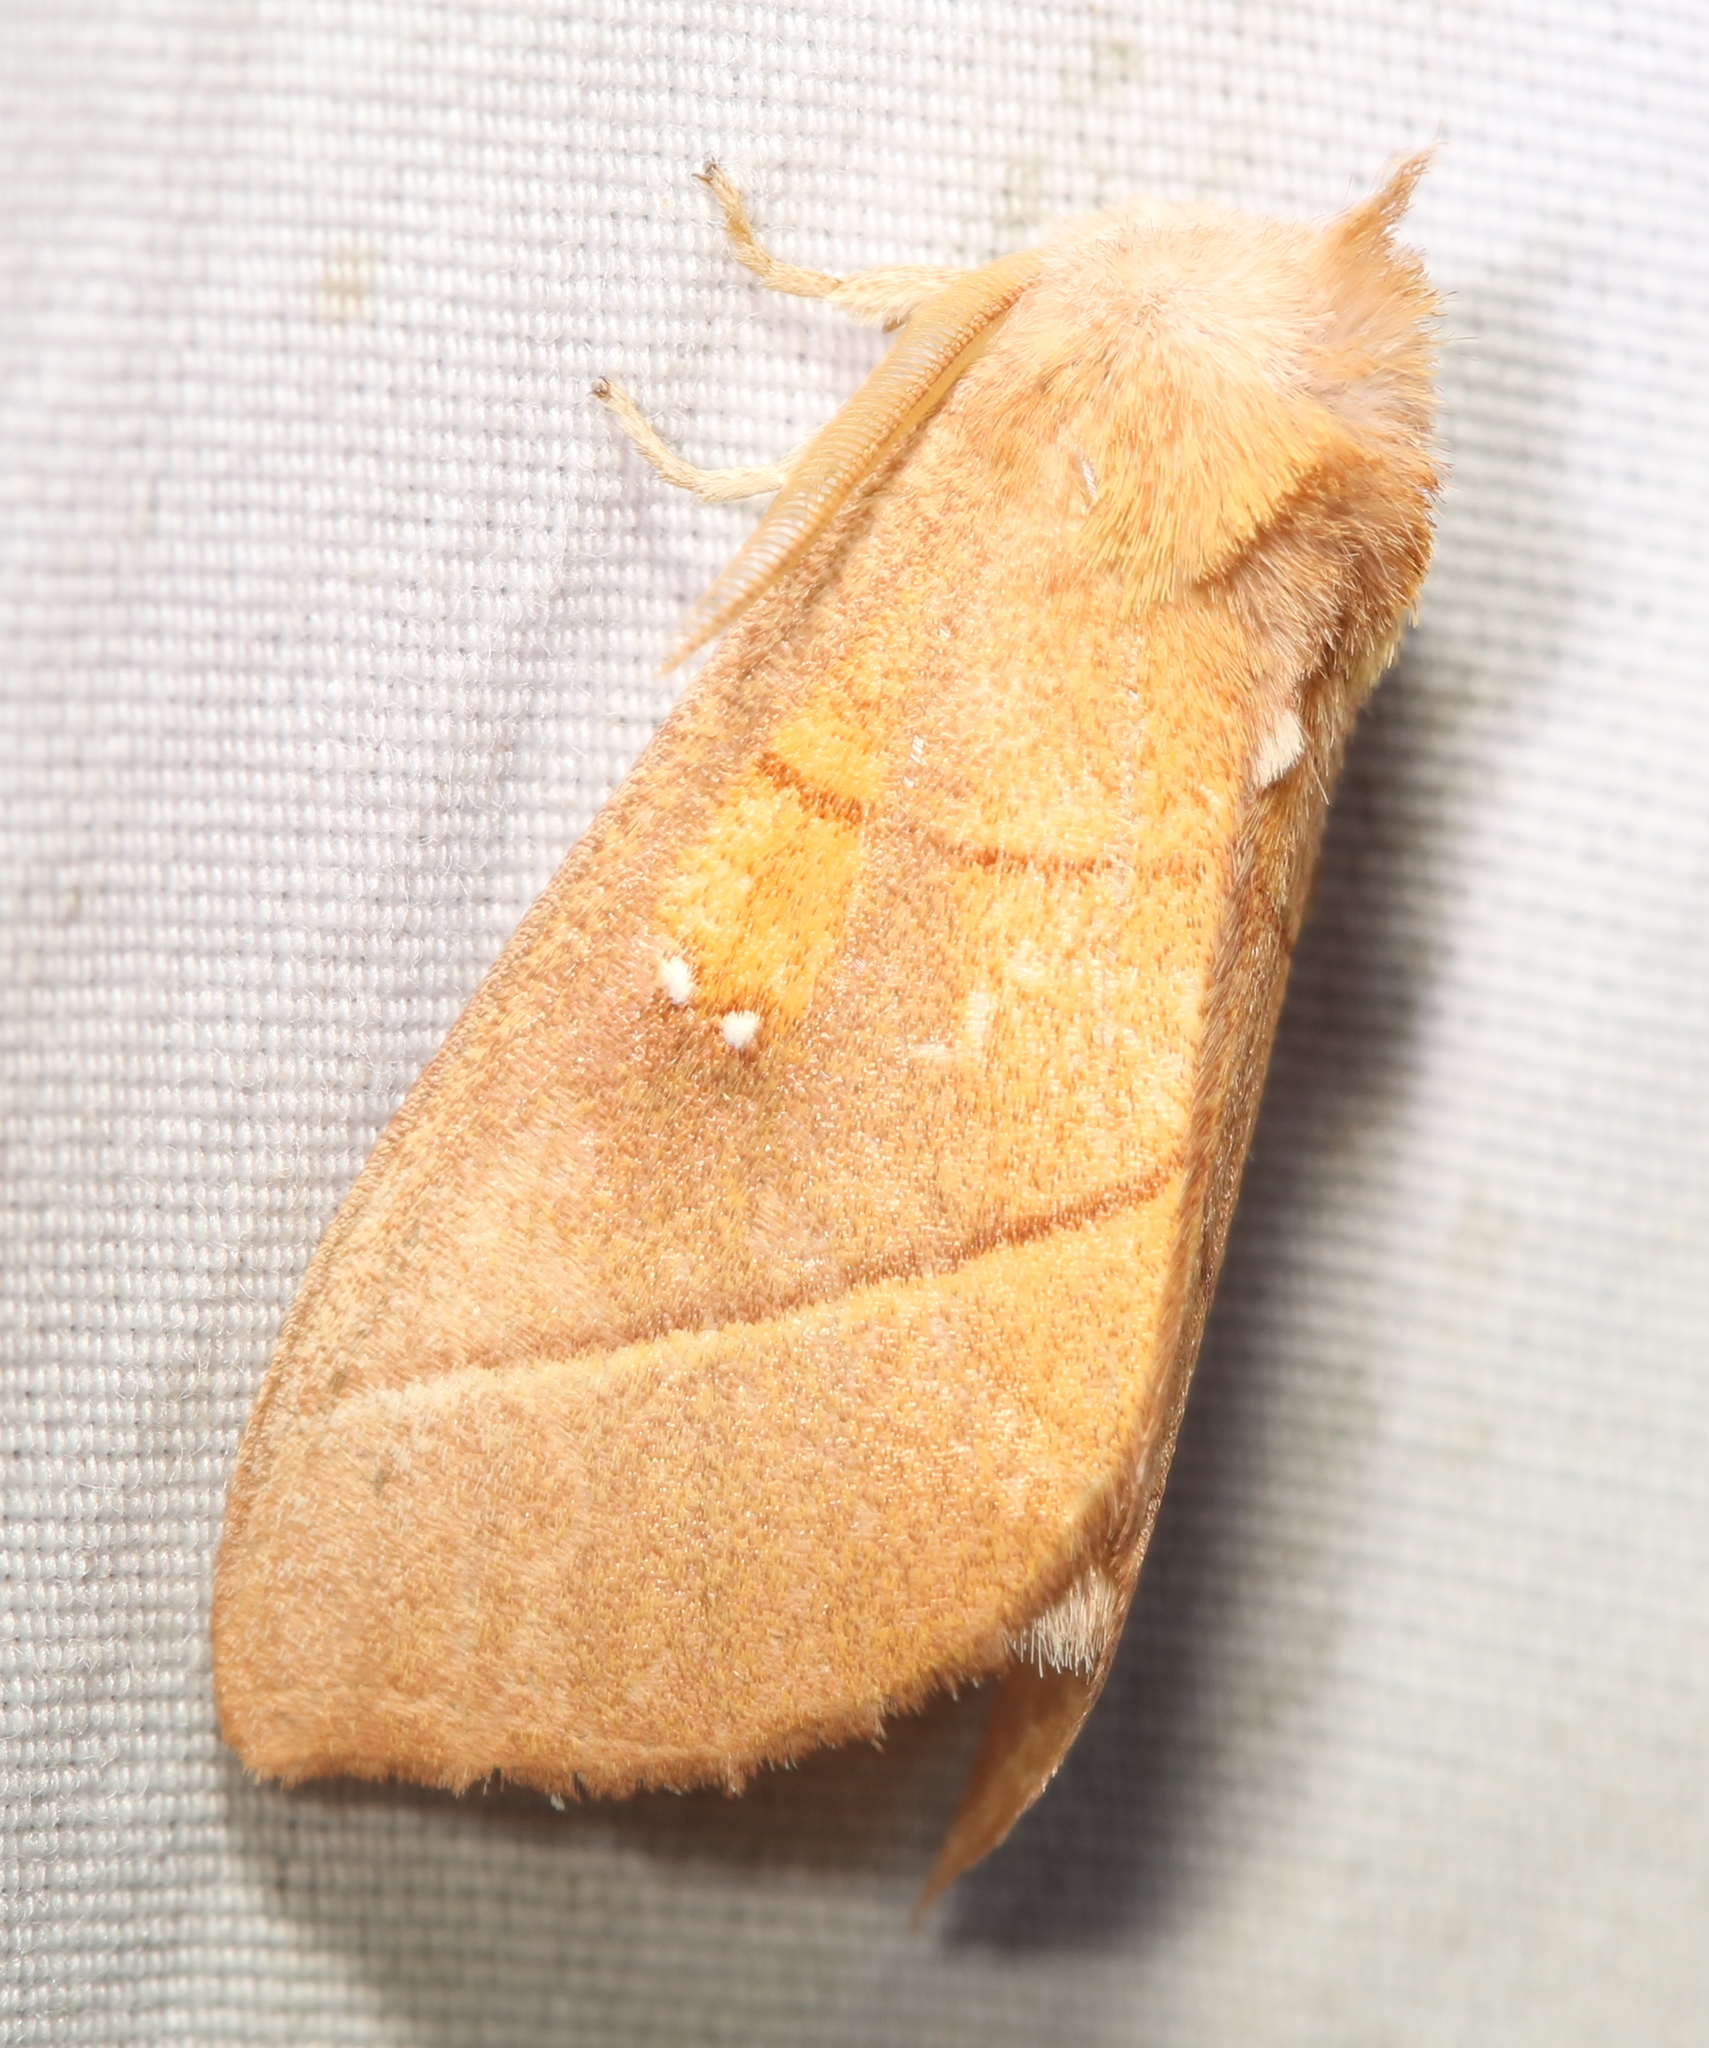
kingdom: Animalia
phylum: Arthropoda
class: Insecta
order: Lepidoptera
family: Notodontidae
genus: Nadata
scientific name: Nadata gibbosa
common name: White-dotted prominent
